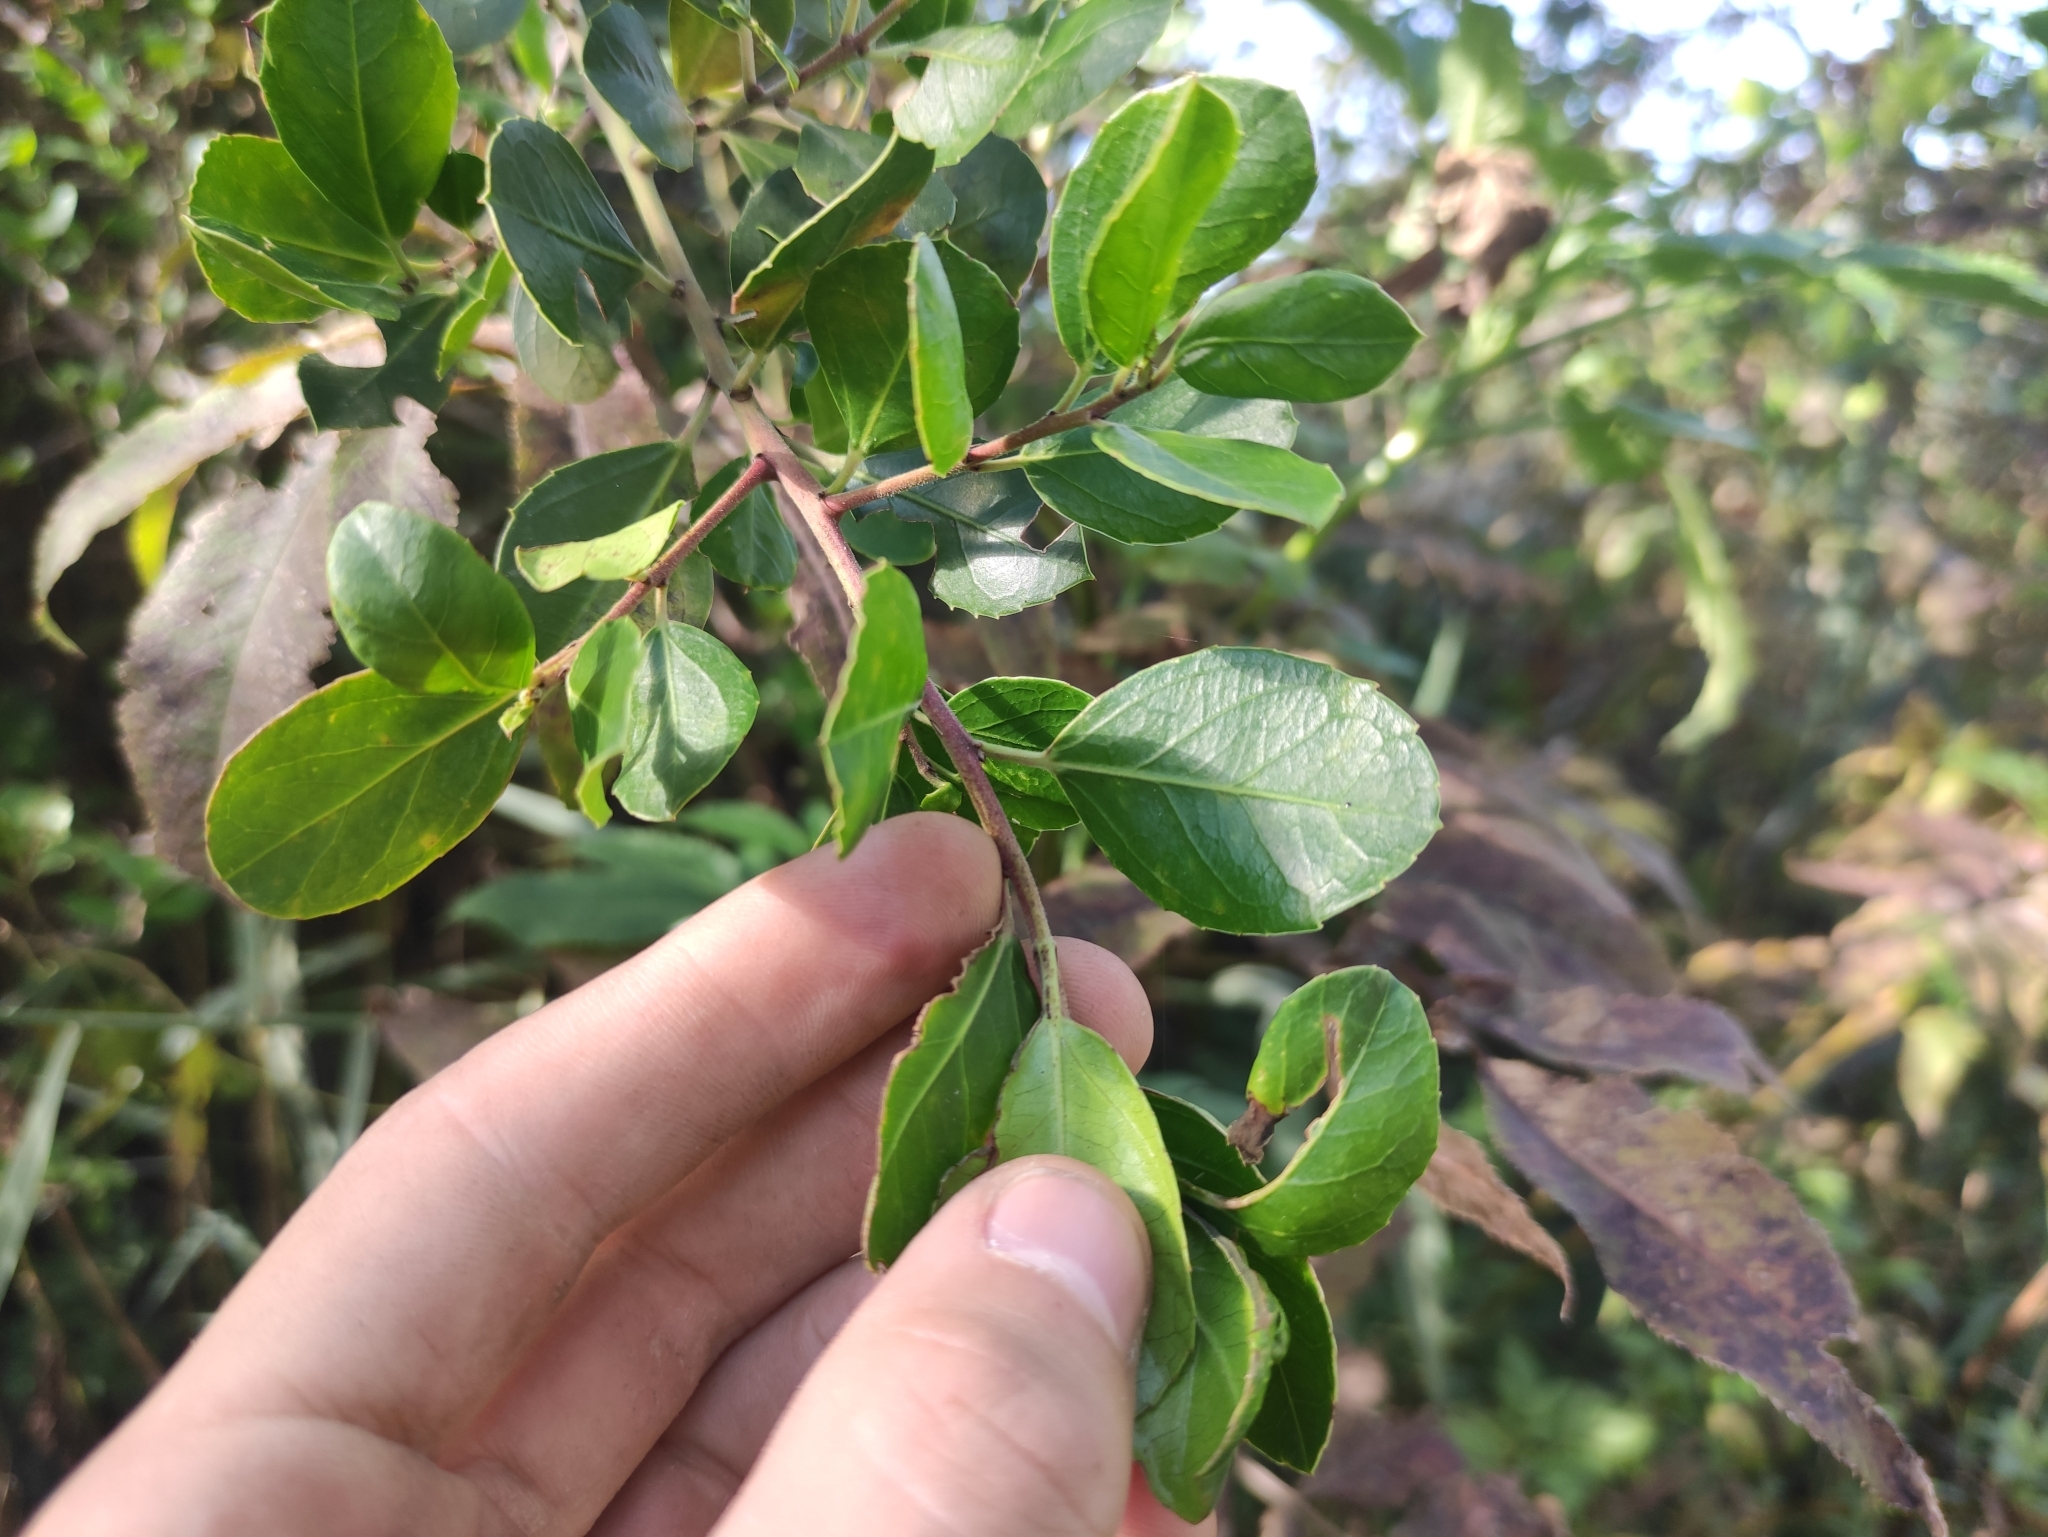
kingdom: Plantae
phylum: Tracheophyta
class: Magnoliopsida
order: Rosales
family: Rhamnaceae
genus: Rhamnus
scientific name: Rhamnus alaternus
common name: Mediterranean buckthorn
